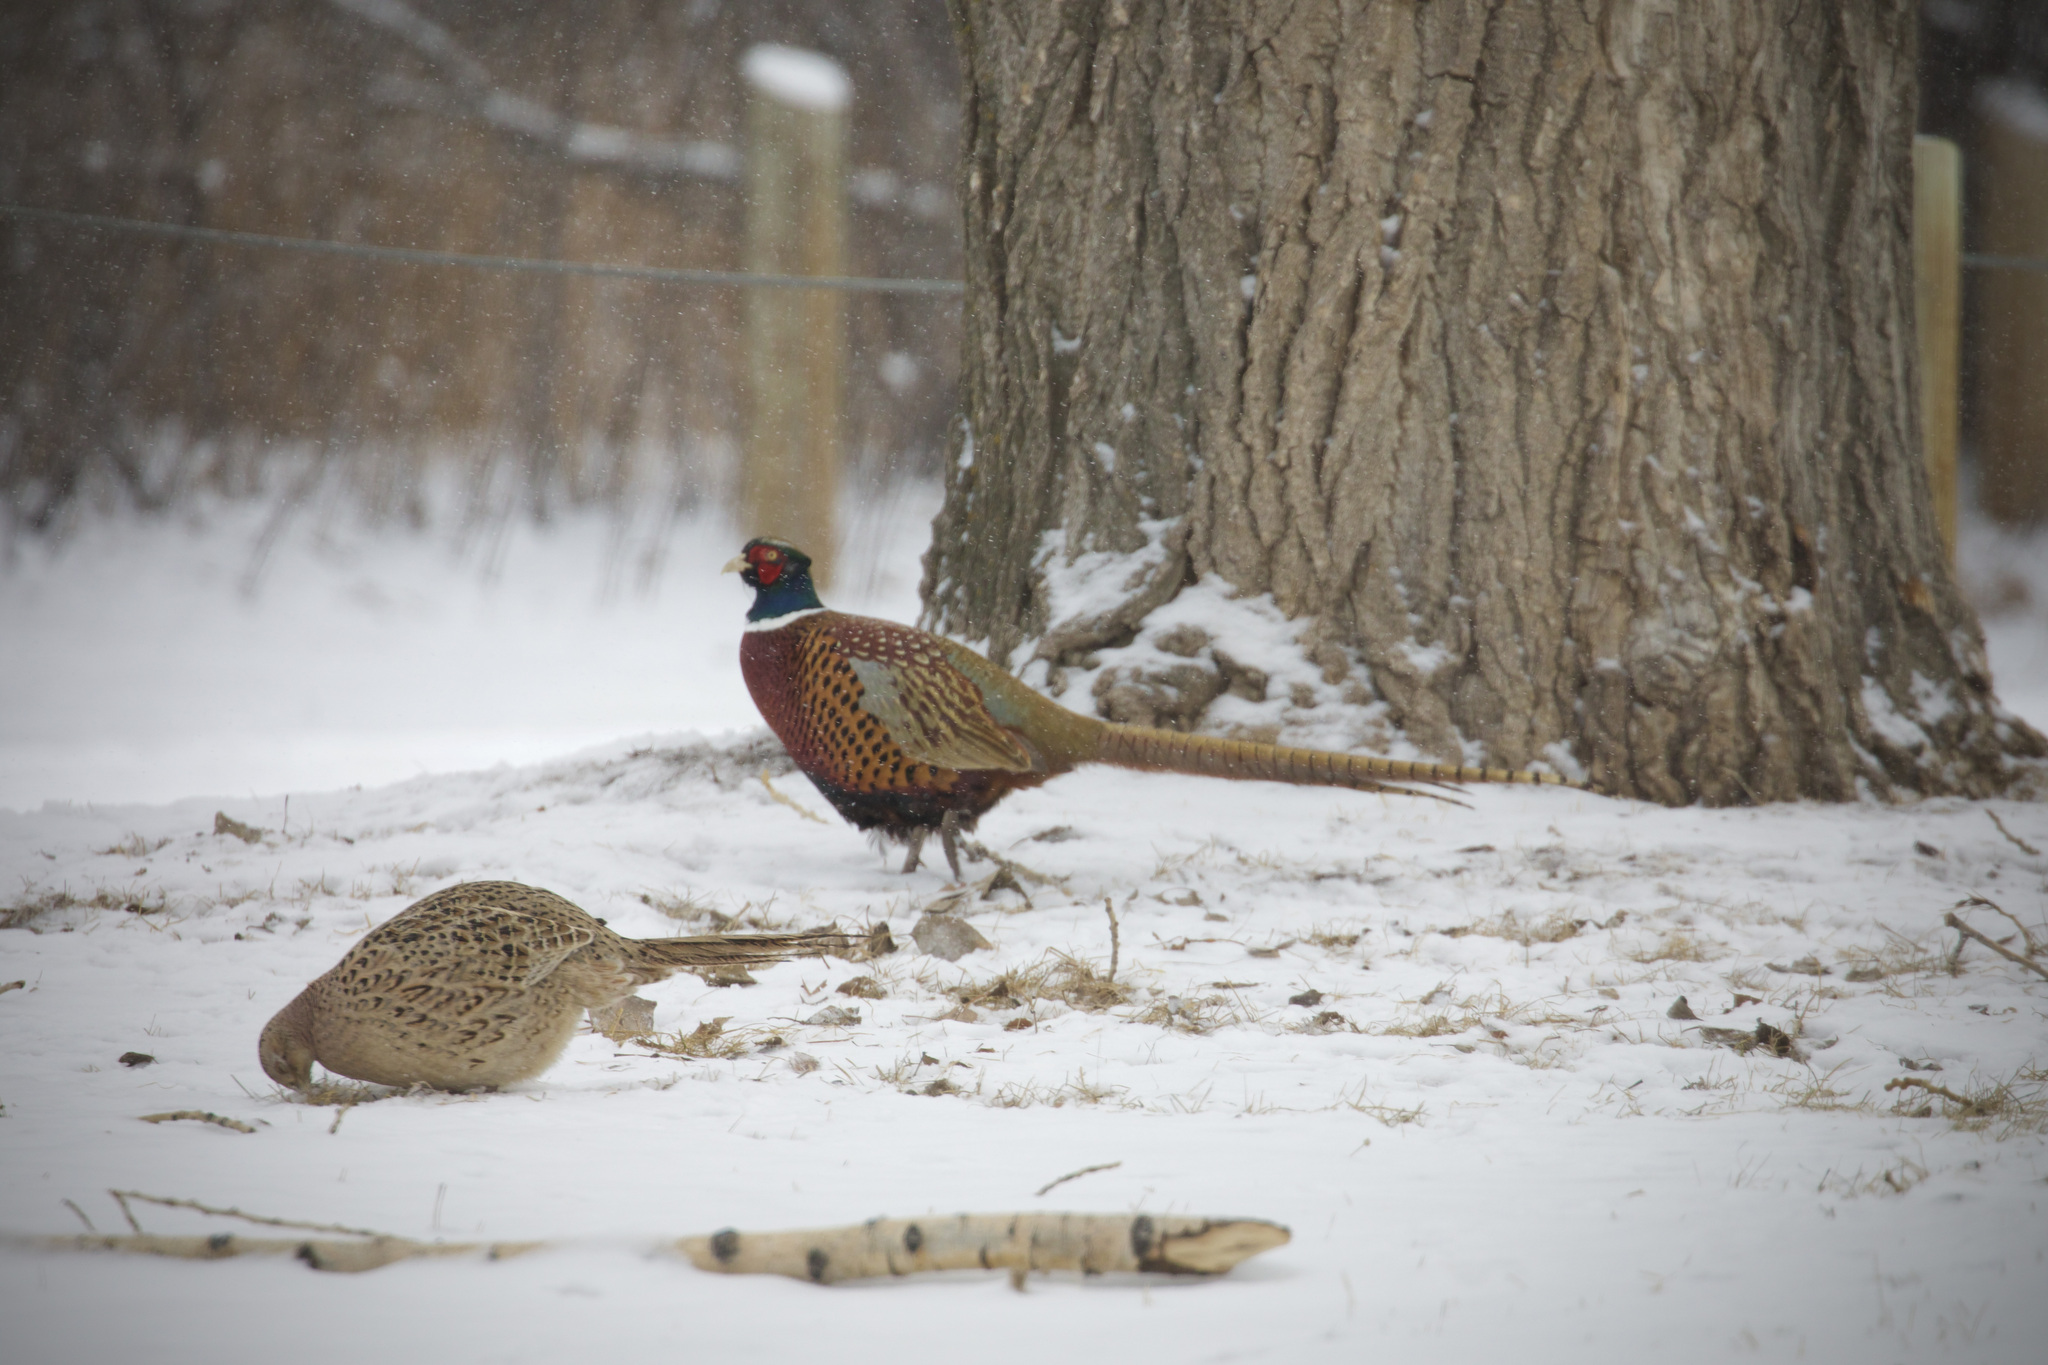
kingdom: Animalia
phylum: Chordata
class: Aves
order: Galliformes
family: Phasianidae
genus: Phasianus
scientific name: Phasianus colchicus
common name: Common pheasant
